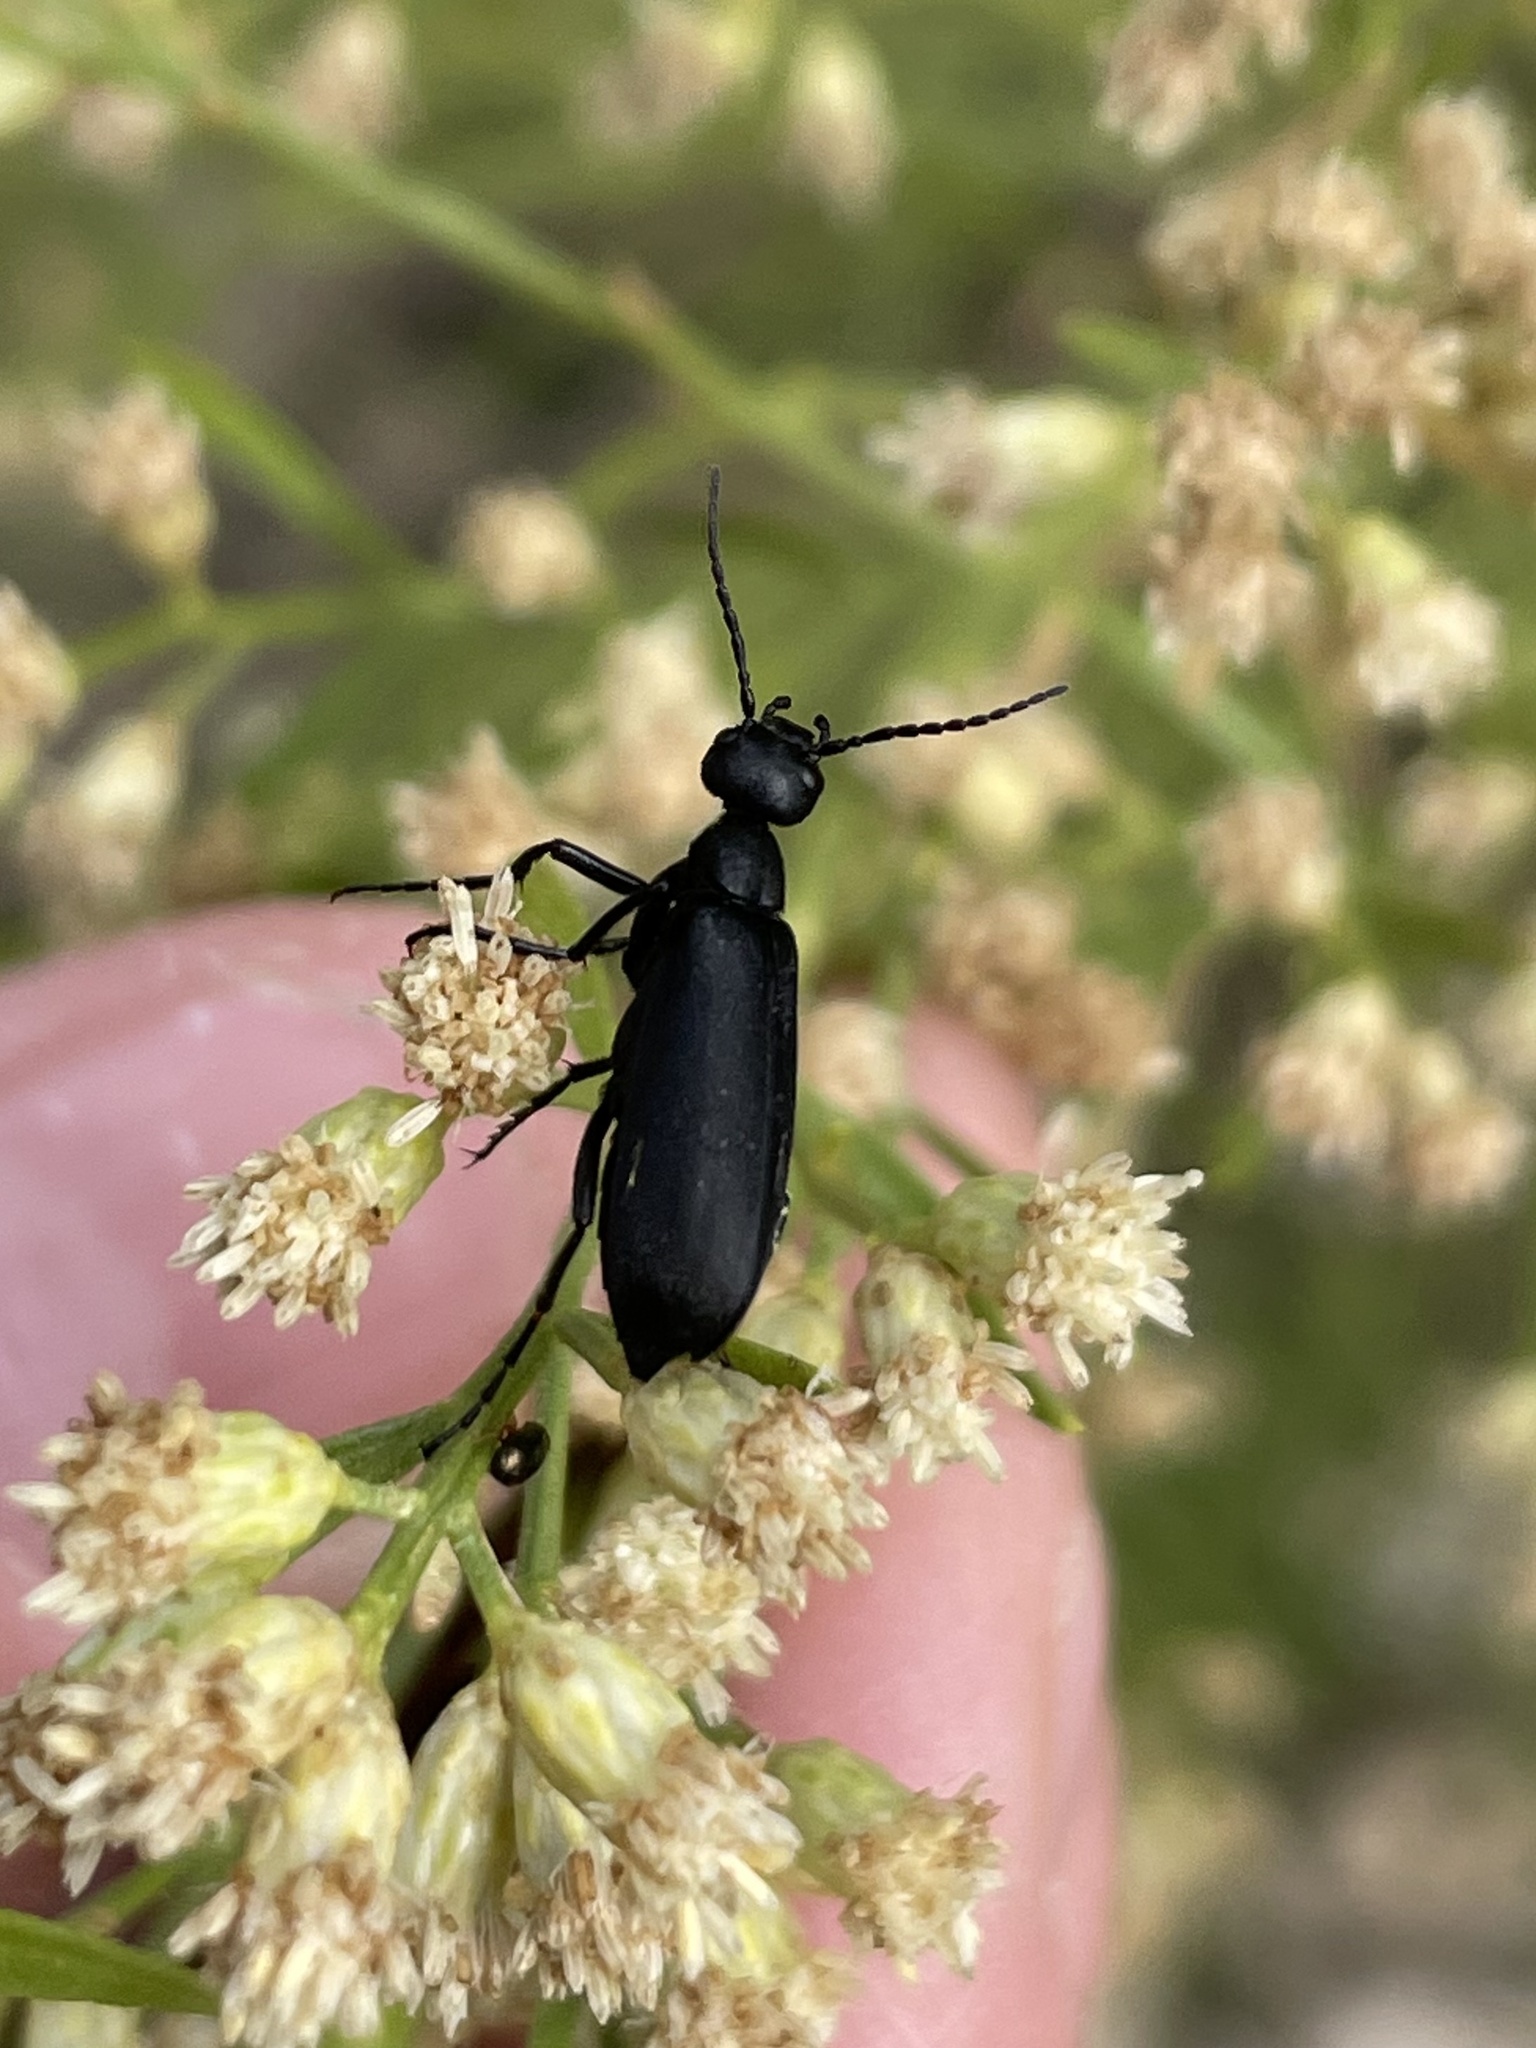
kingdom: Animalia
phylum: Arthropoda
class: Insecta
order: Coleoptera
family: Meloidae
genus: Epicauta
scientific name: Epicauta pensylvanica
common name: Black blister beetle
